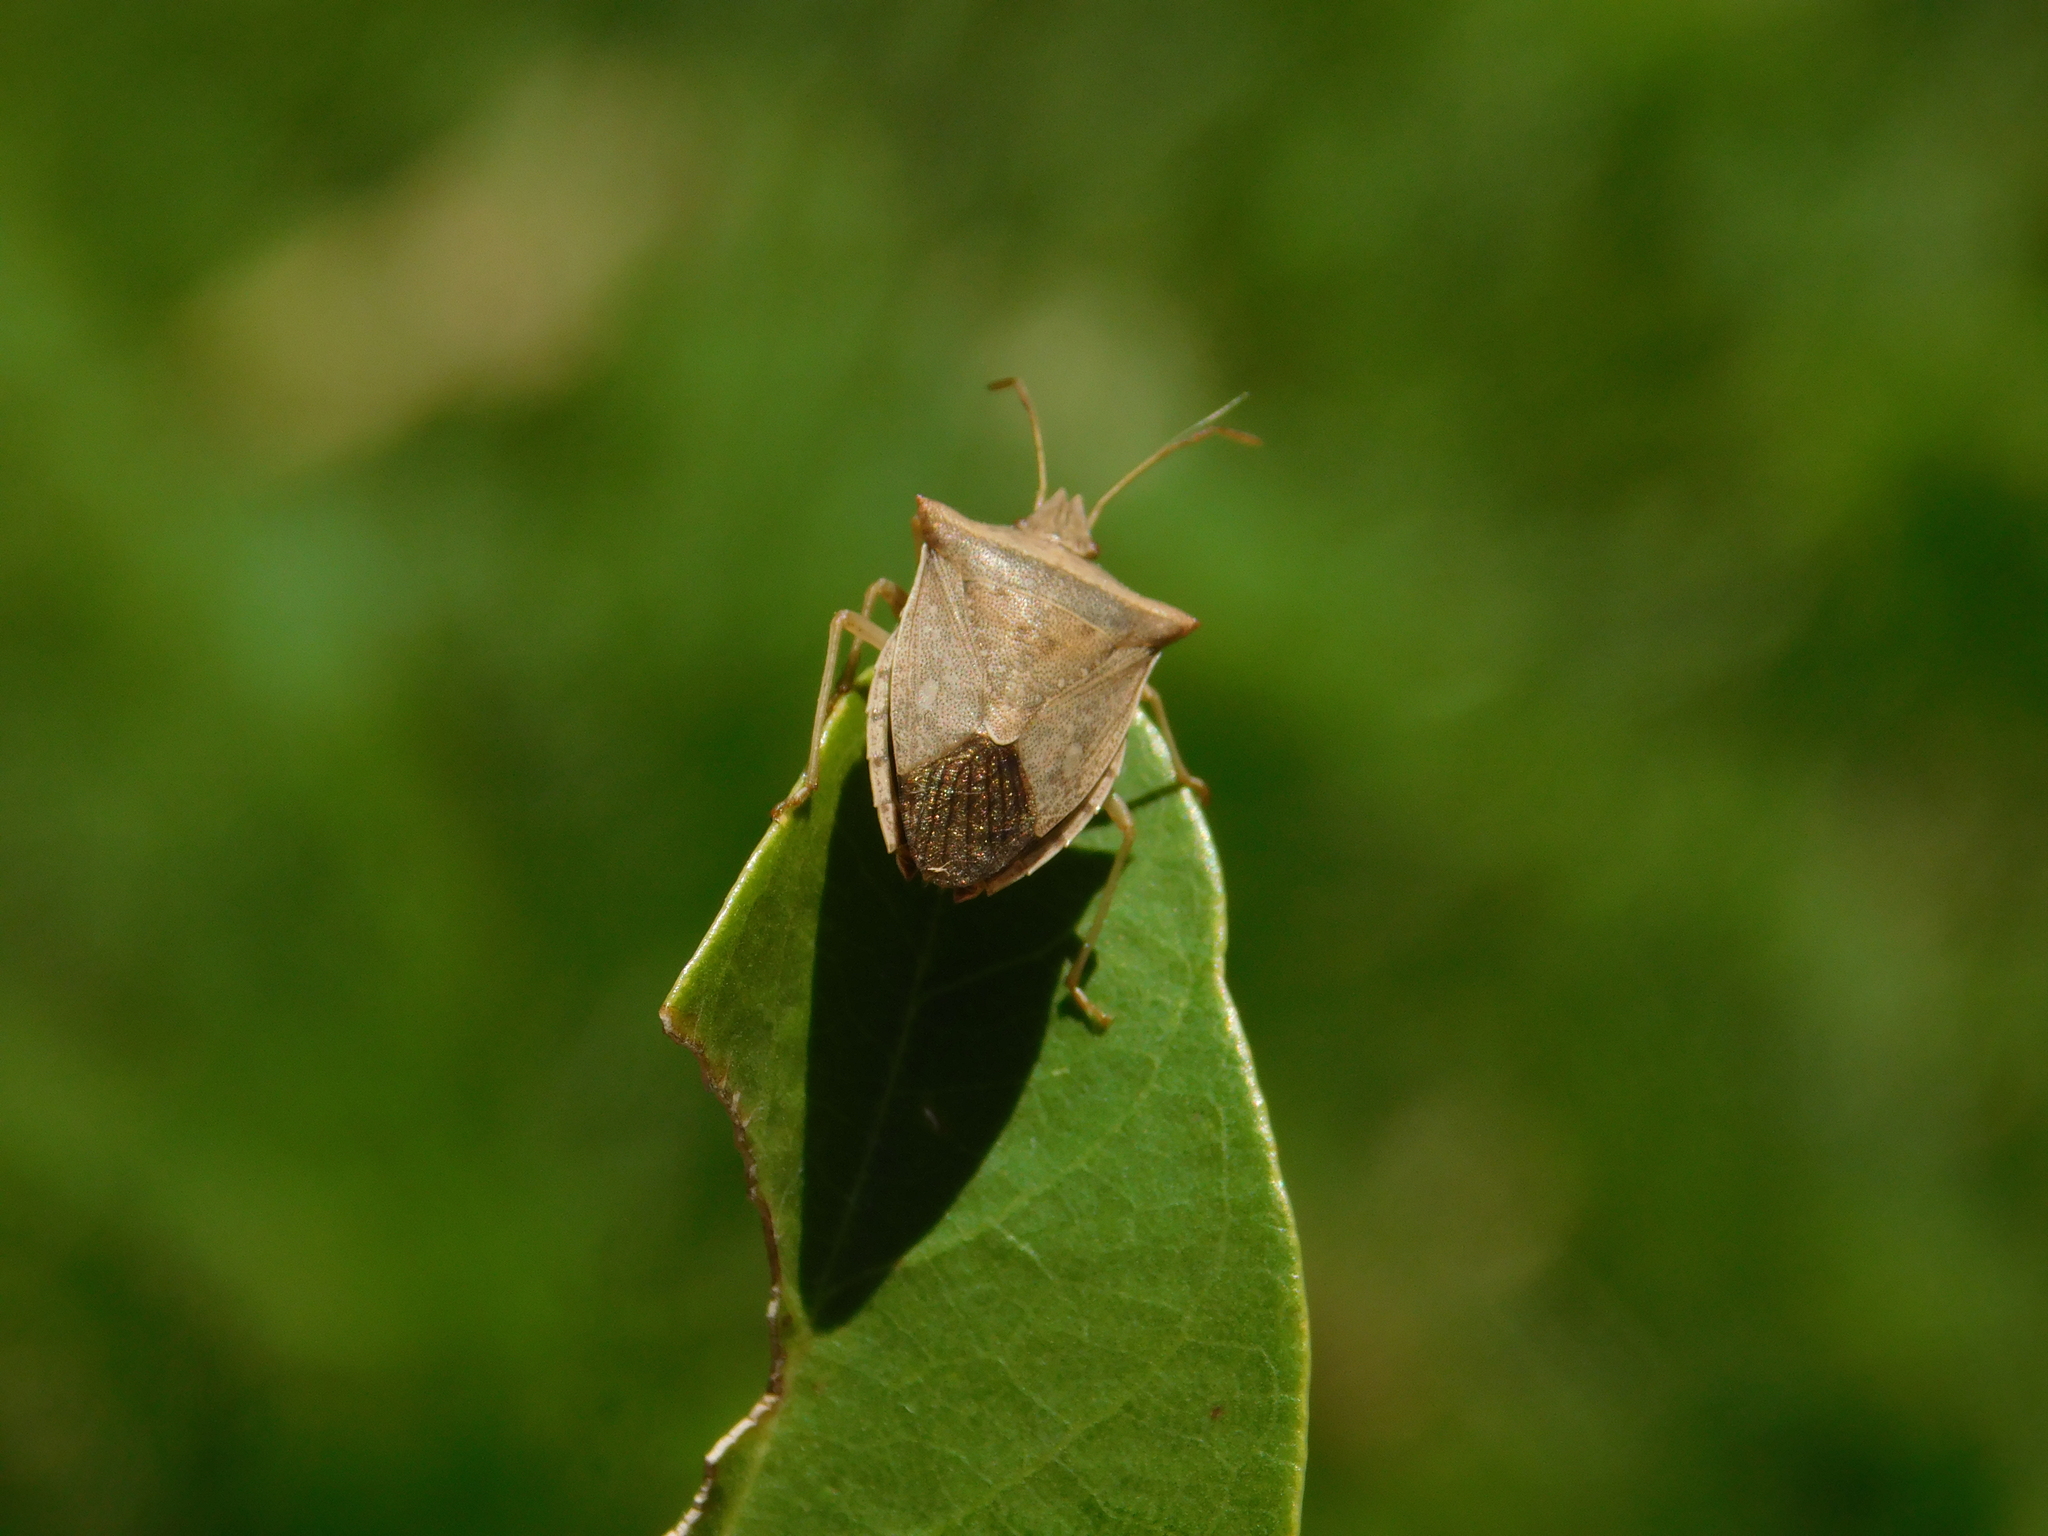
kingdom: Animalia
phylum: Arthropoda
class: Insecta
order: Hemiptera
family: Pentatomidae
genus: Diceraeus
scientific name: Diceraeus furcatus
